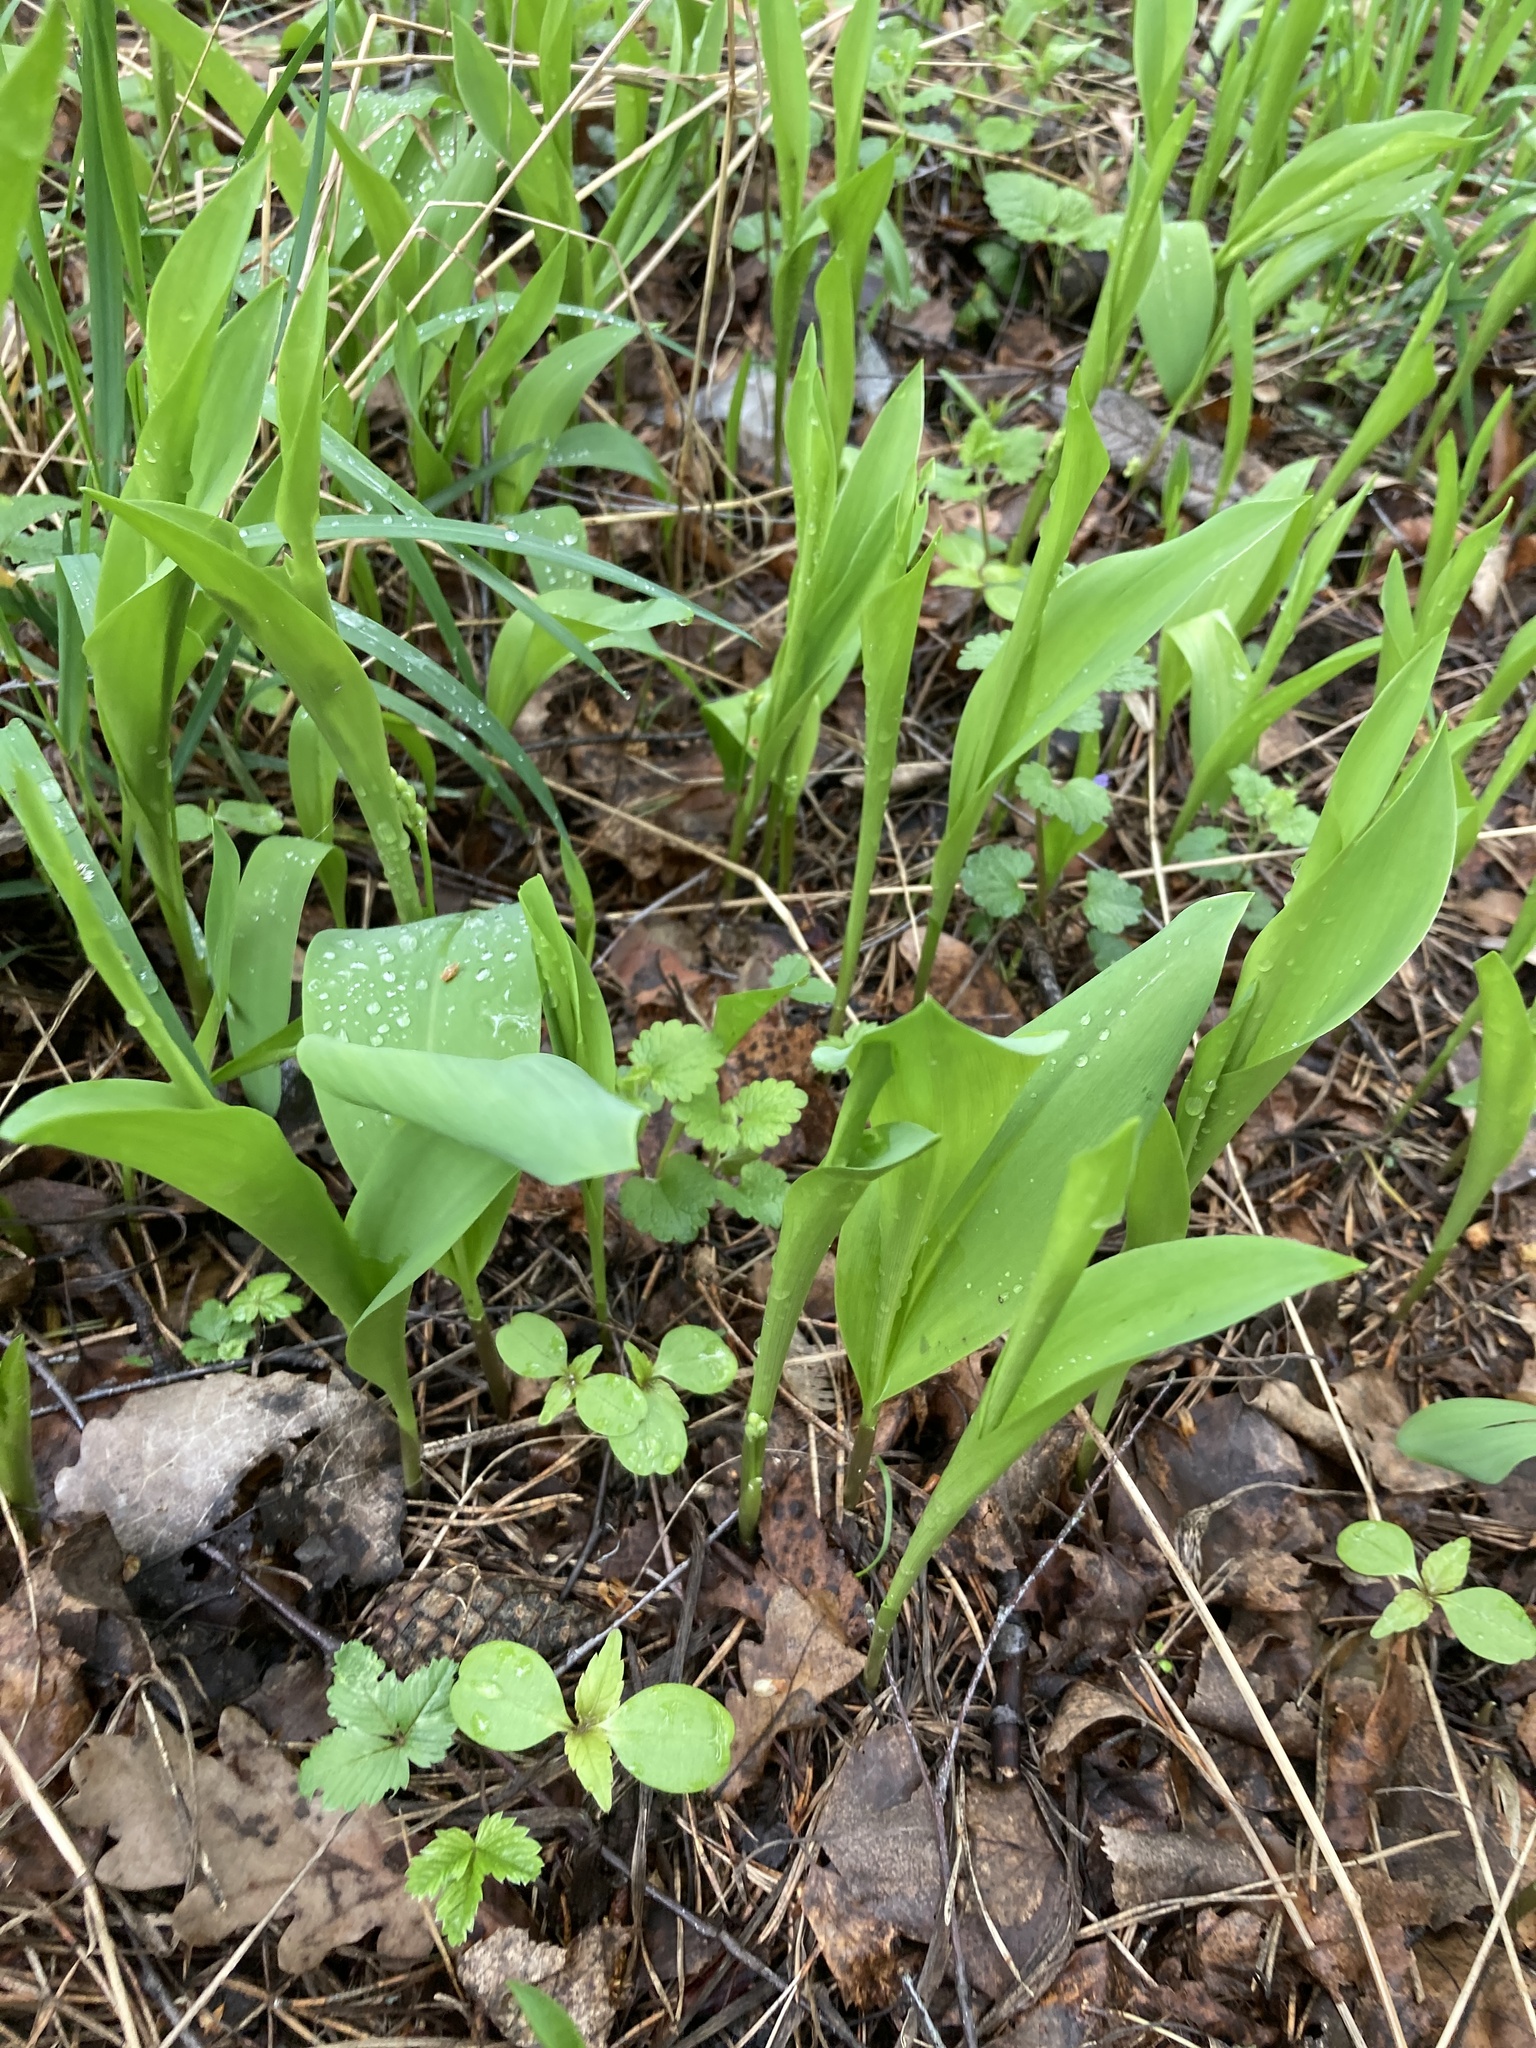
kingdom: Plantae
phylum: Tracheophyta
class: Liliopsida
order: Asparagales
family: Asparagaceae
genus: Convallaria
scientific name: Convallaria majalis
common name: Lily-of-the-valley
